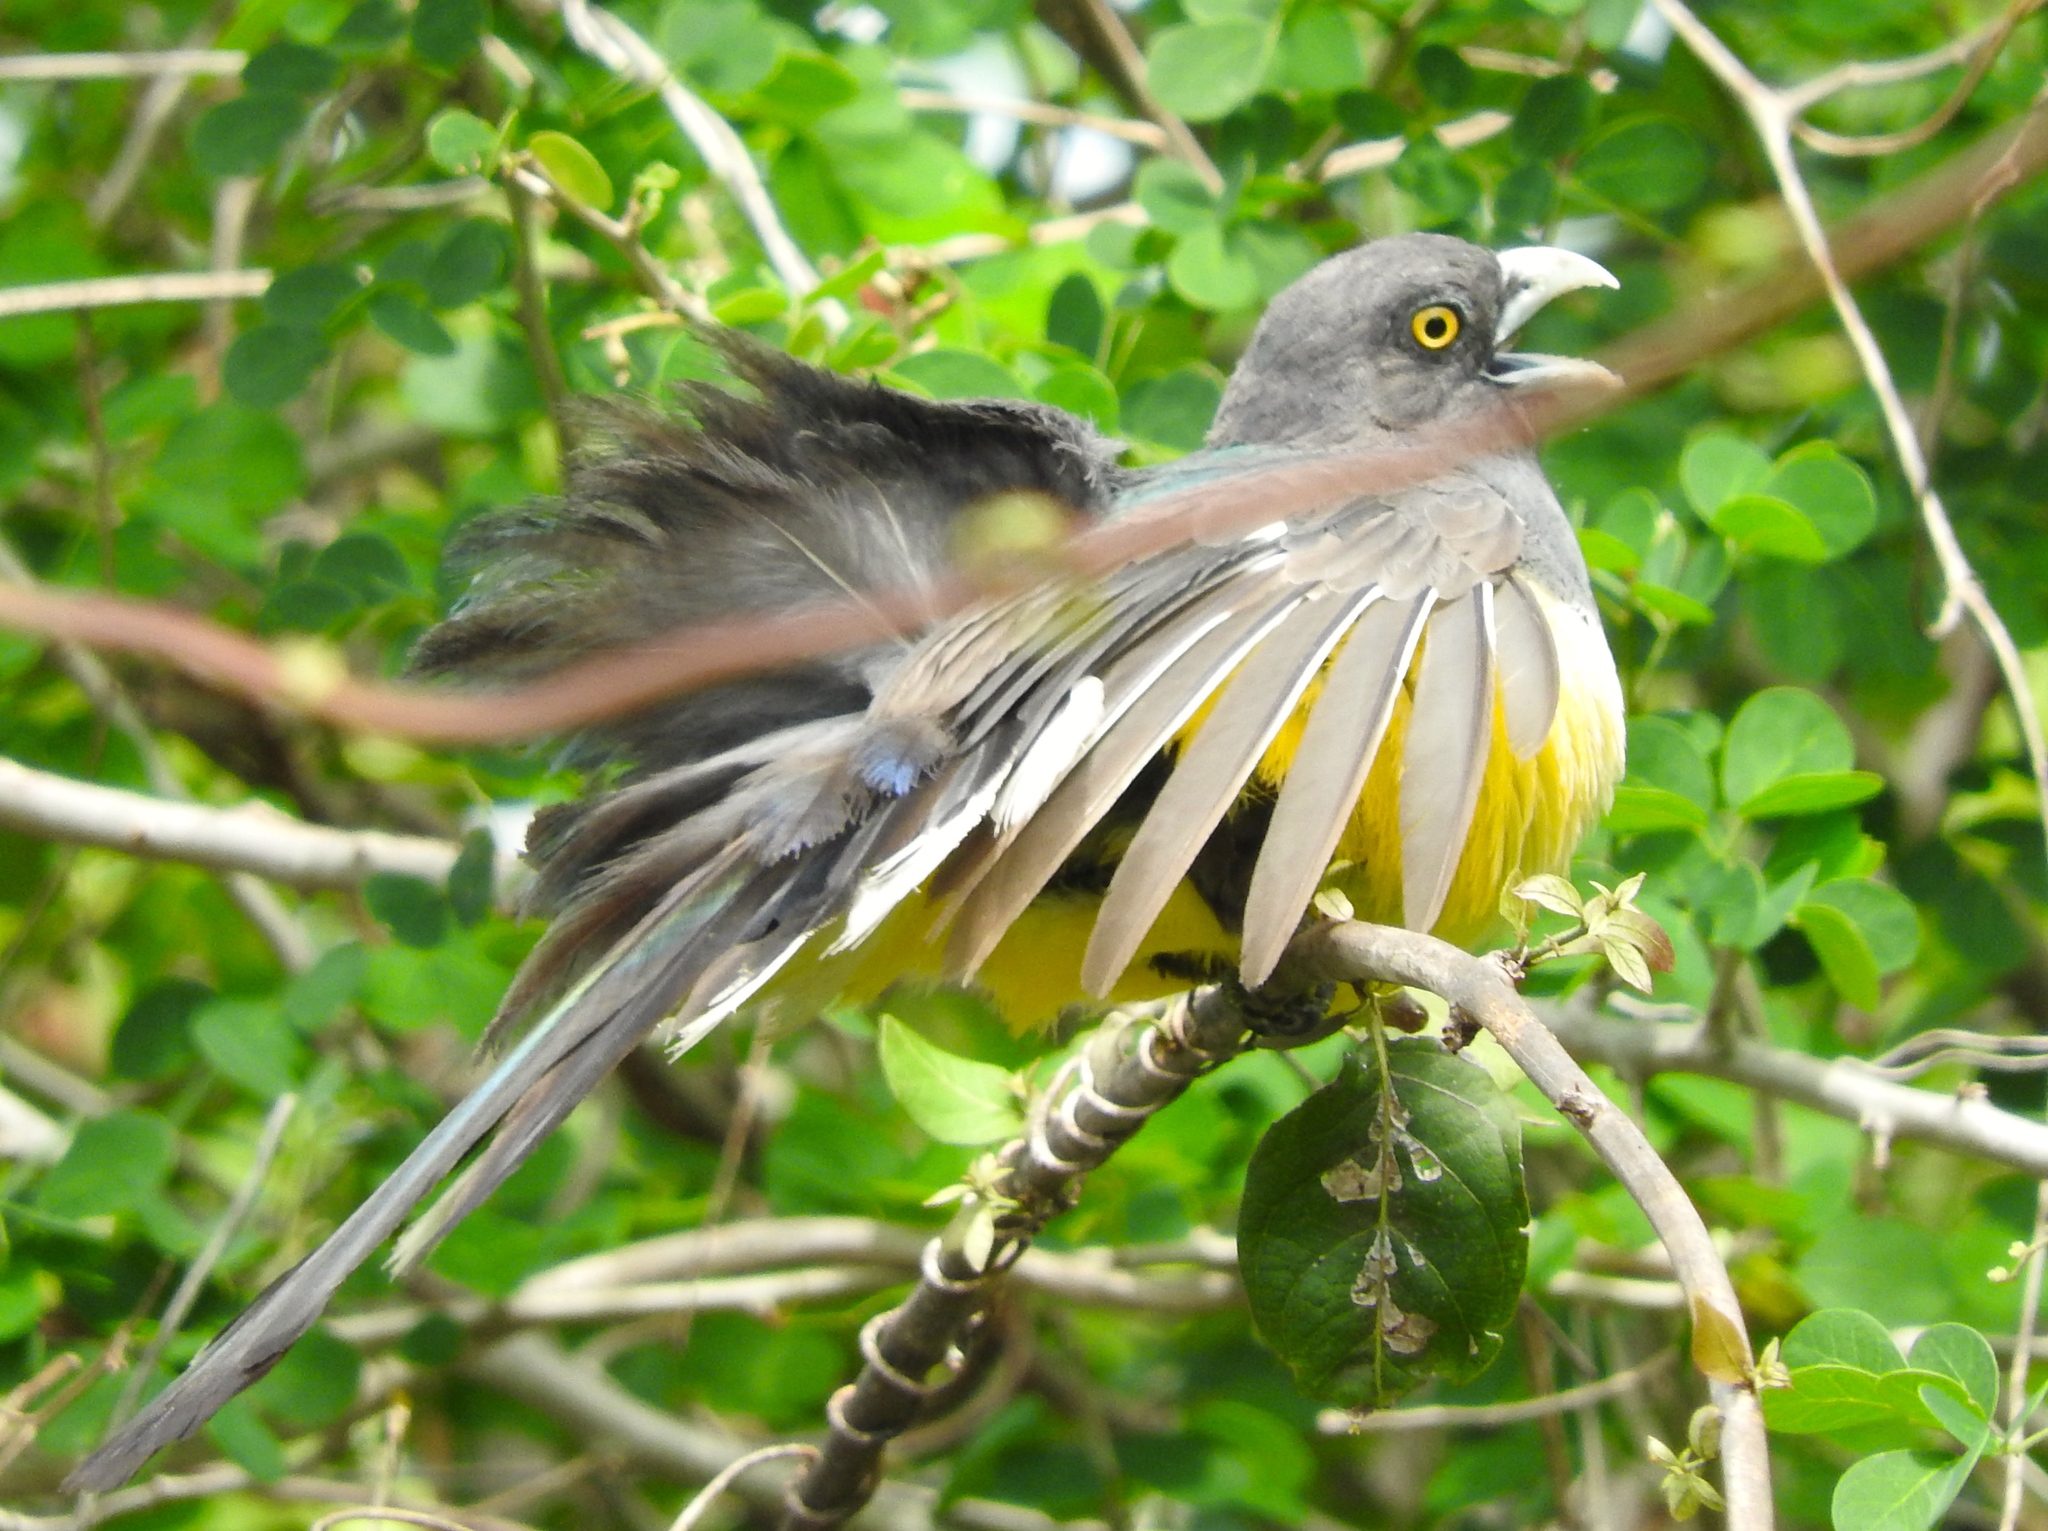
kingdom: Animalia
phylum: Chordata
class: Aves
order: Trogoniformes
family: Trogonidae
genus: Trogon
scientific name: Trogon citreolus
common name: Citreoline trogon
